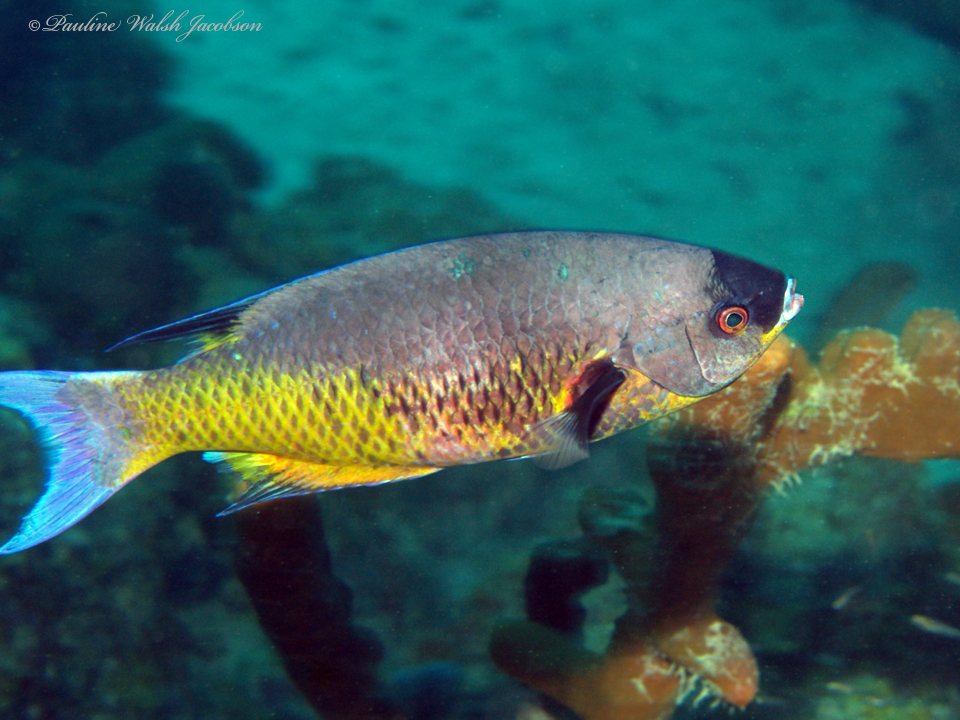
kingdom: Animalia
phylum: Chordata
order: Perciformes
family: Labridae
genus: Bodianus
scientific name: Bodianus
